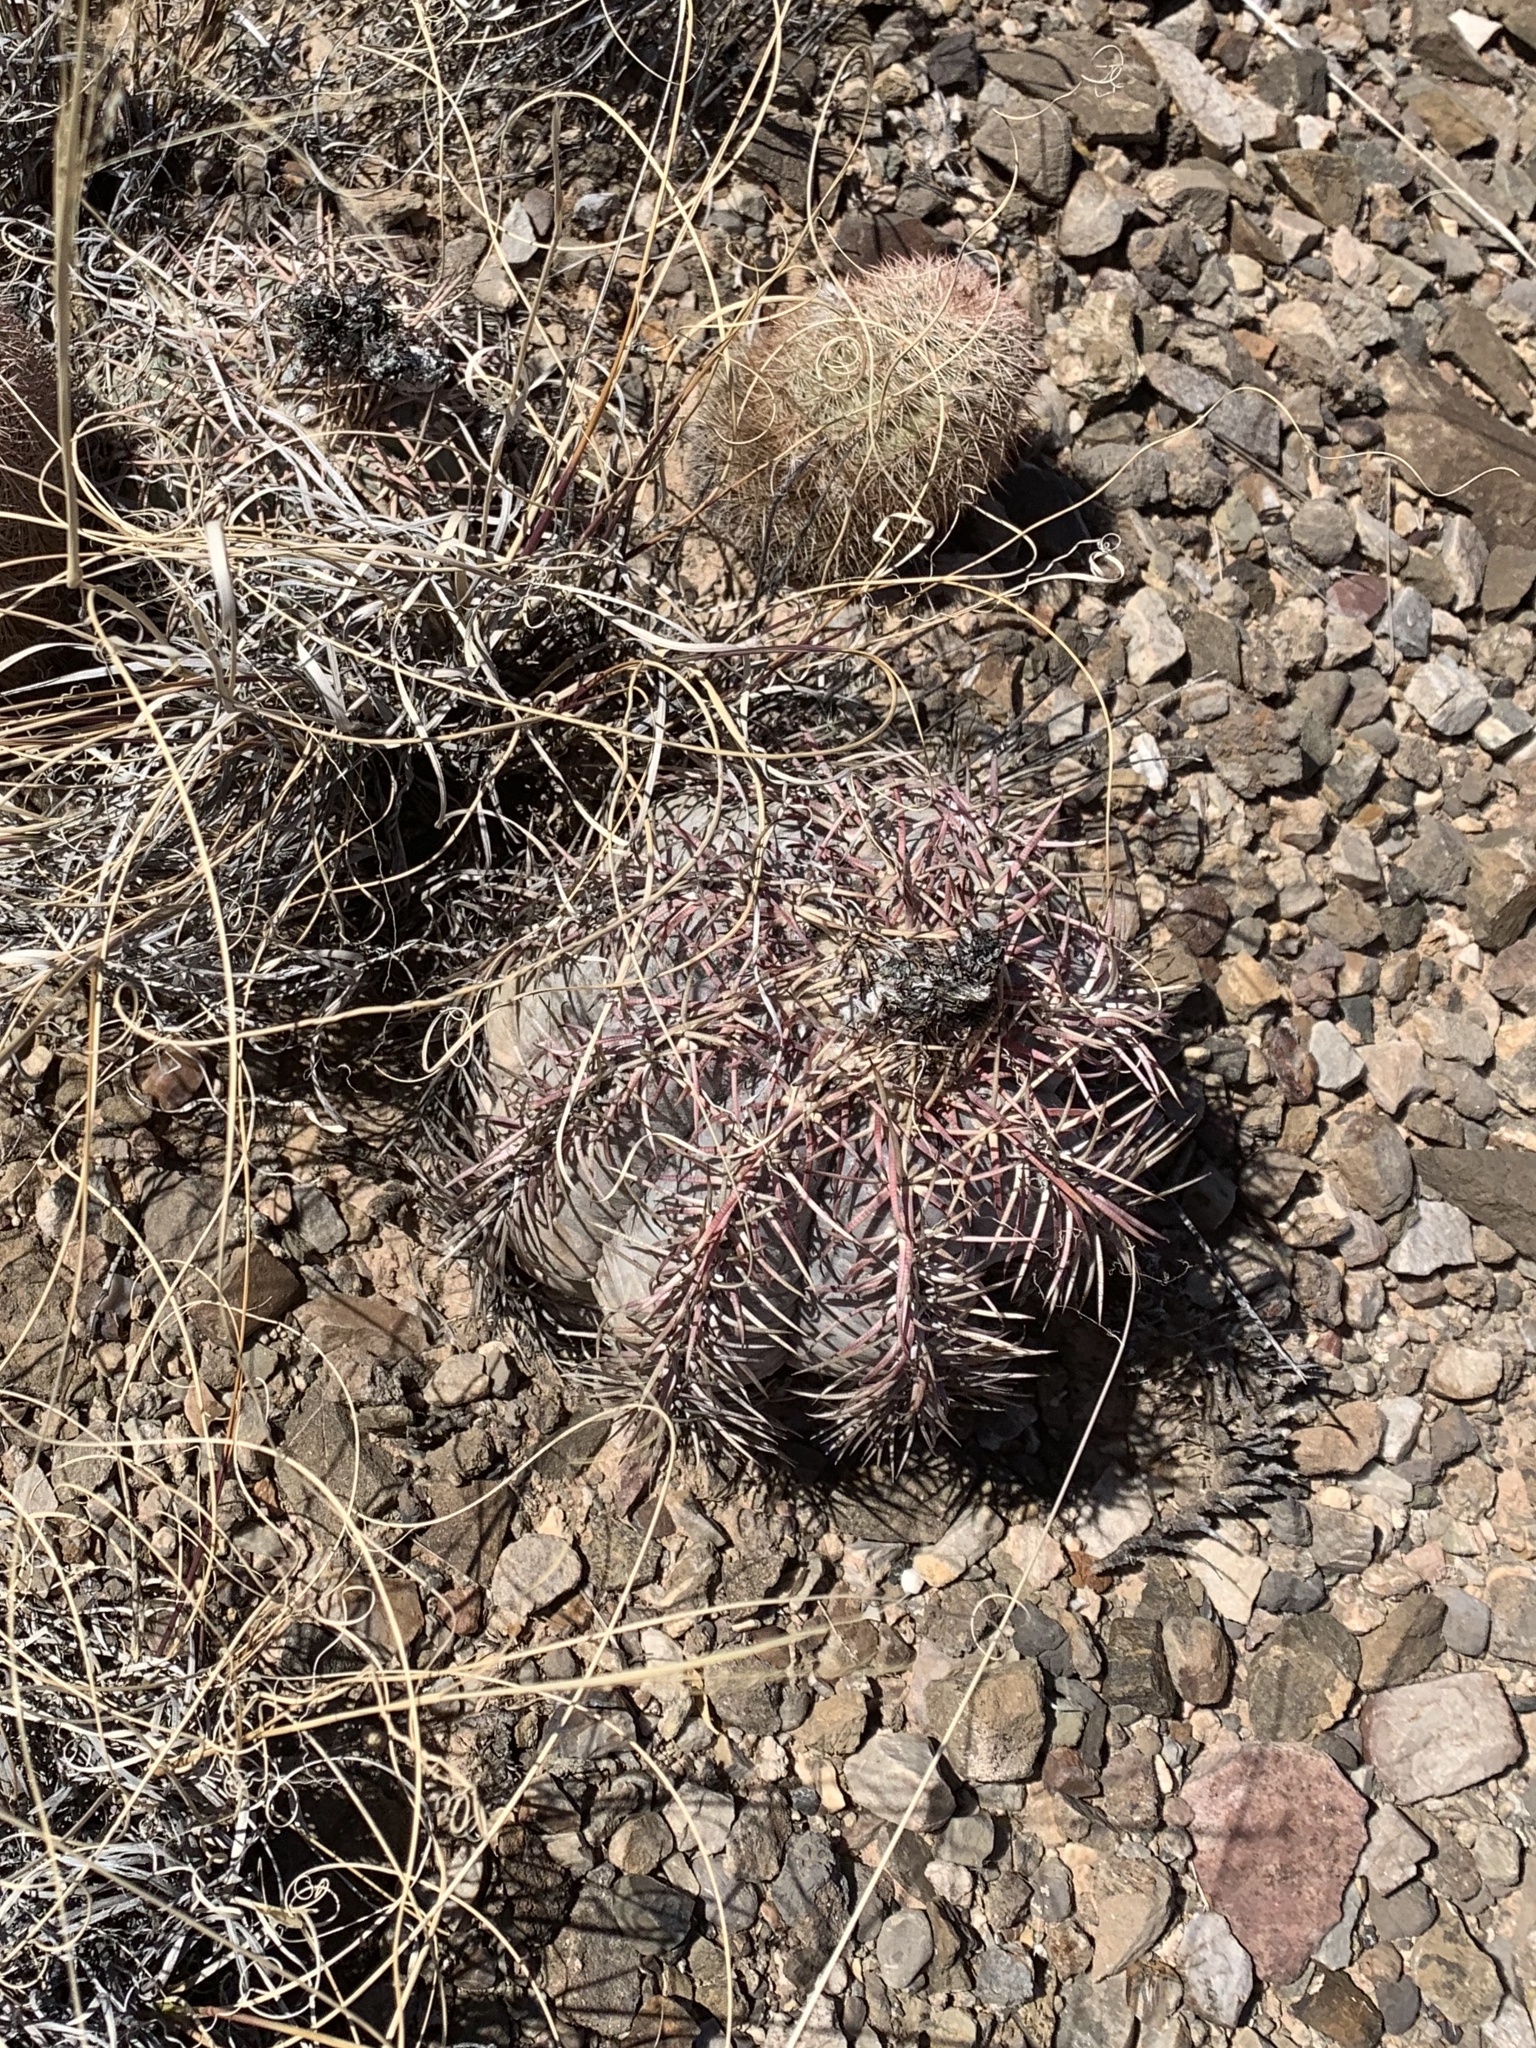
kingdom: Plantae
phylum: Tracheophyta
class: Magnoliopsida
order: Caryophyllales
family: Cactaceae
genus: Echinocactus
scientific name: Echinocactus horizonthalonius
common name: Devilshead
